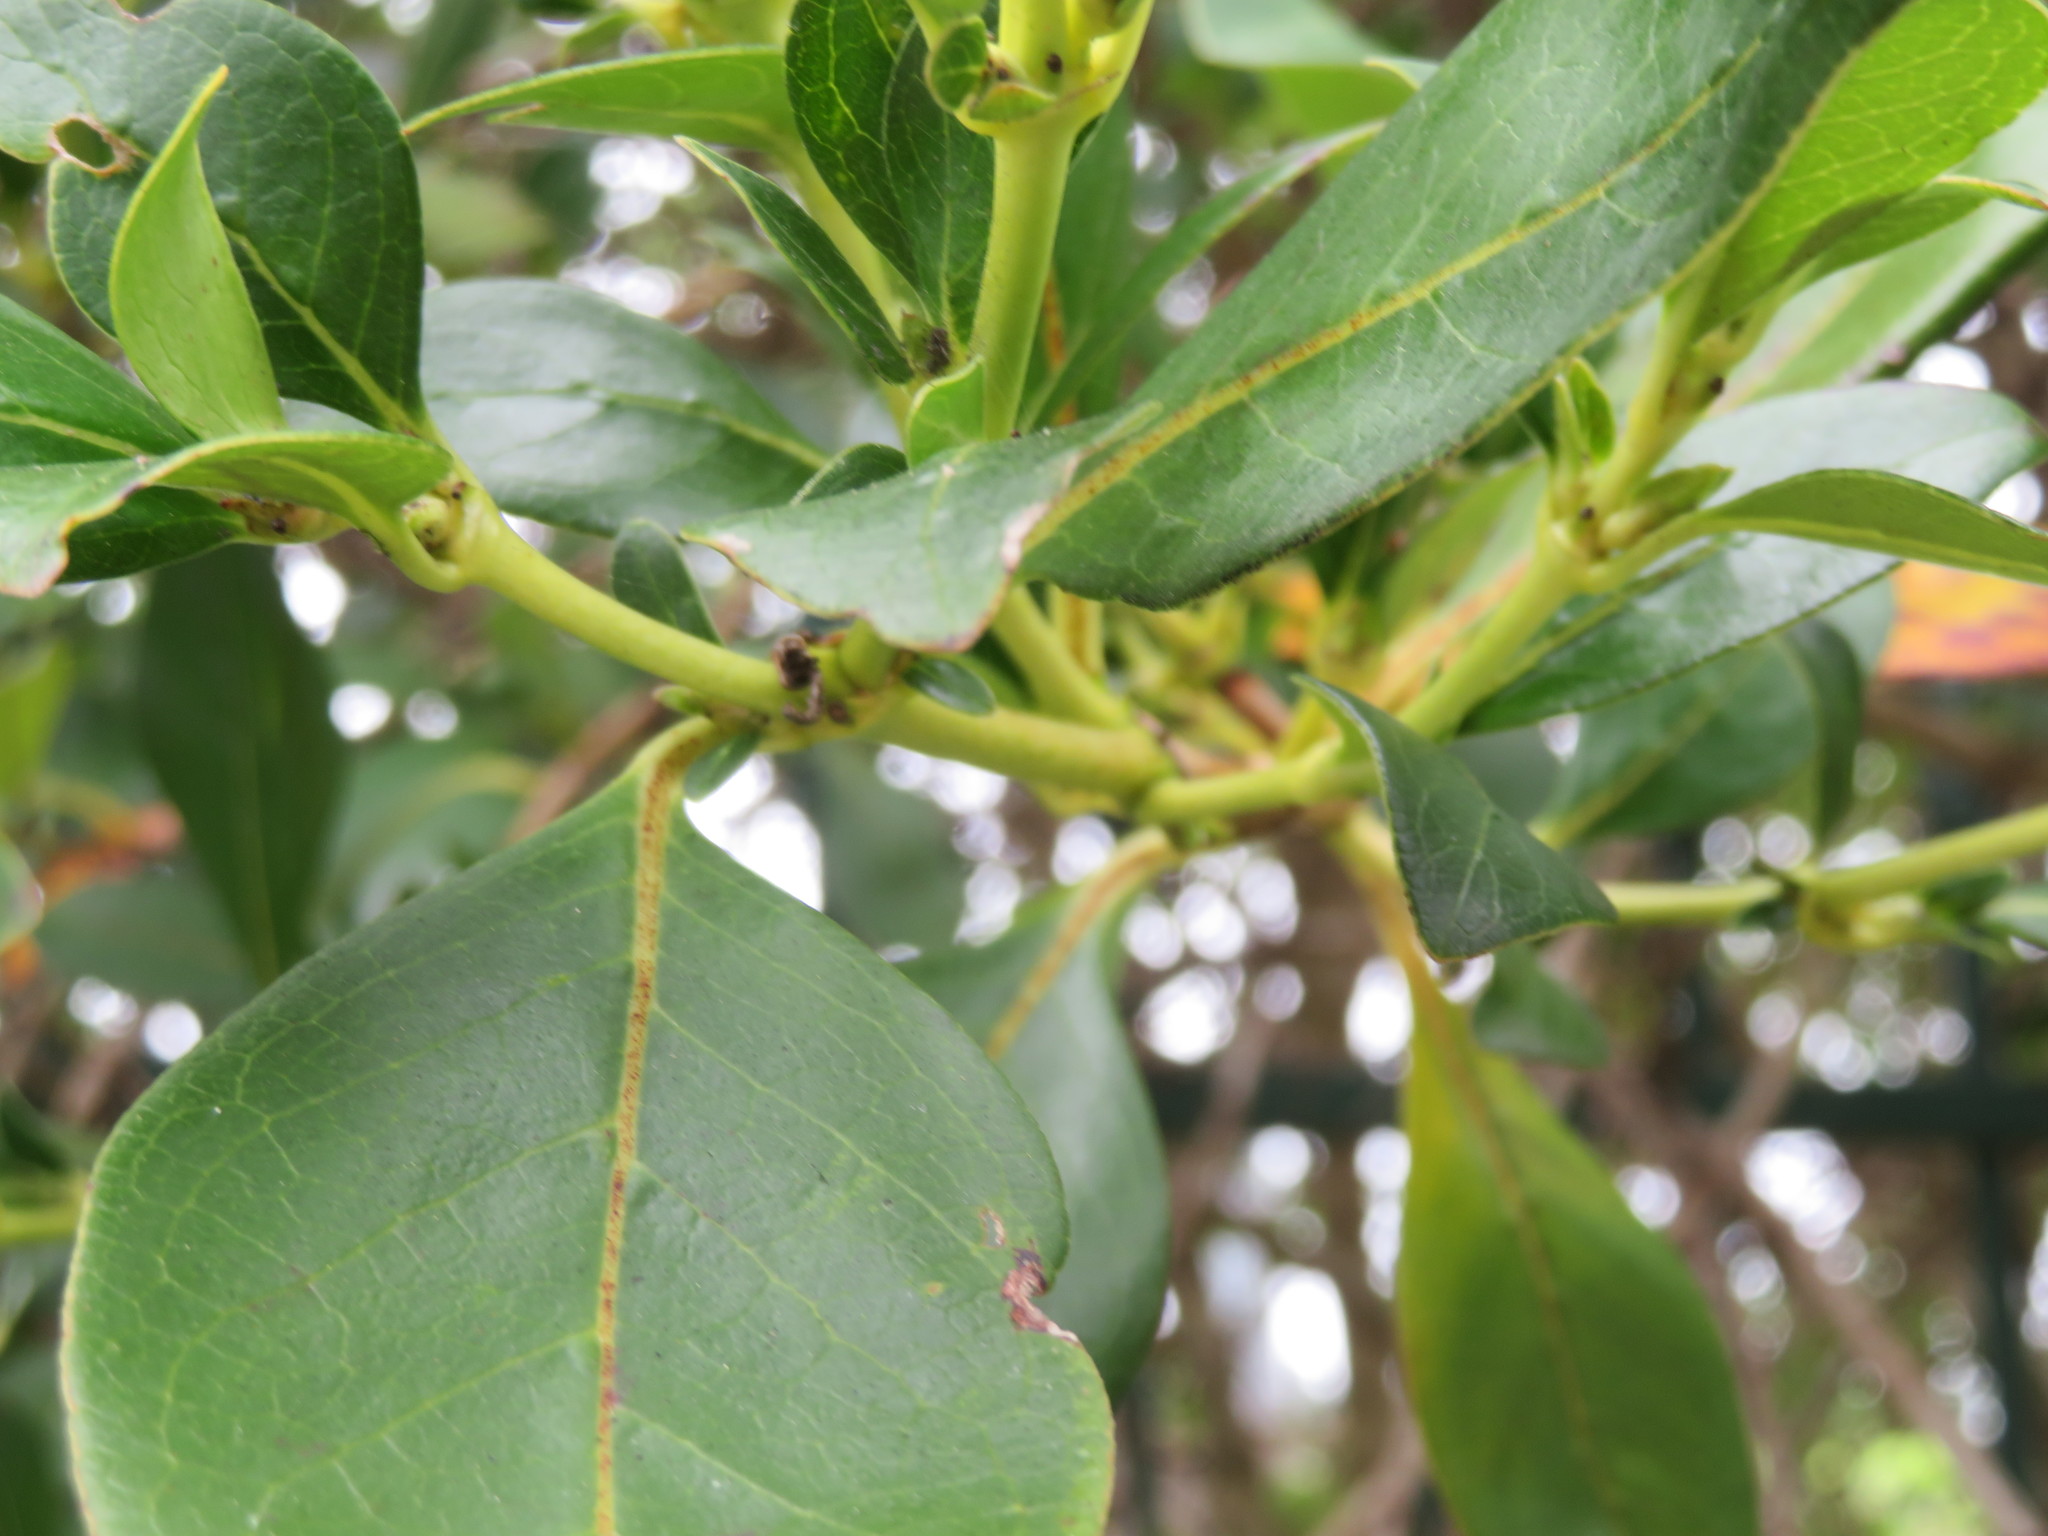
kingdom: Plantae
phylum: Tracheophyta
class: Magnoliopsida
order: Gentianales
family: Rubiaceae
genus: Coprosma
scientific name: Coprosma robusta
